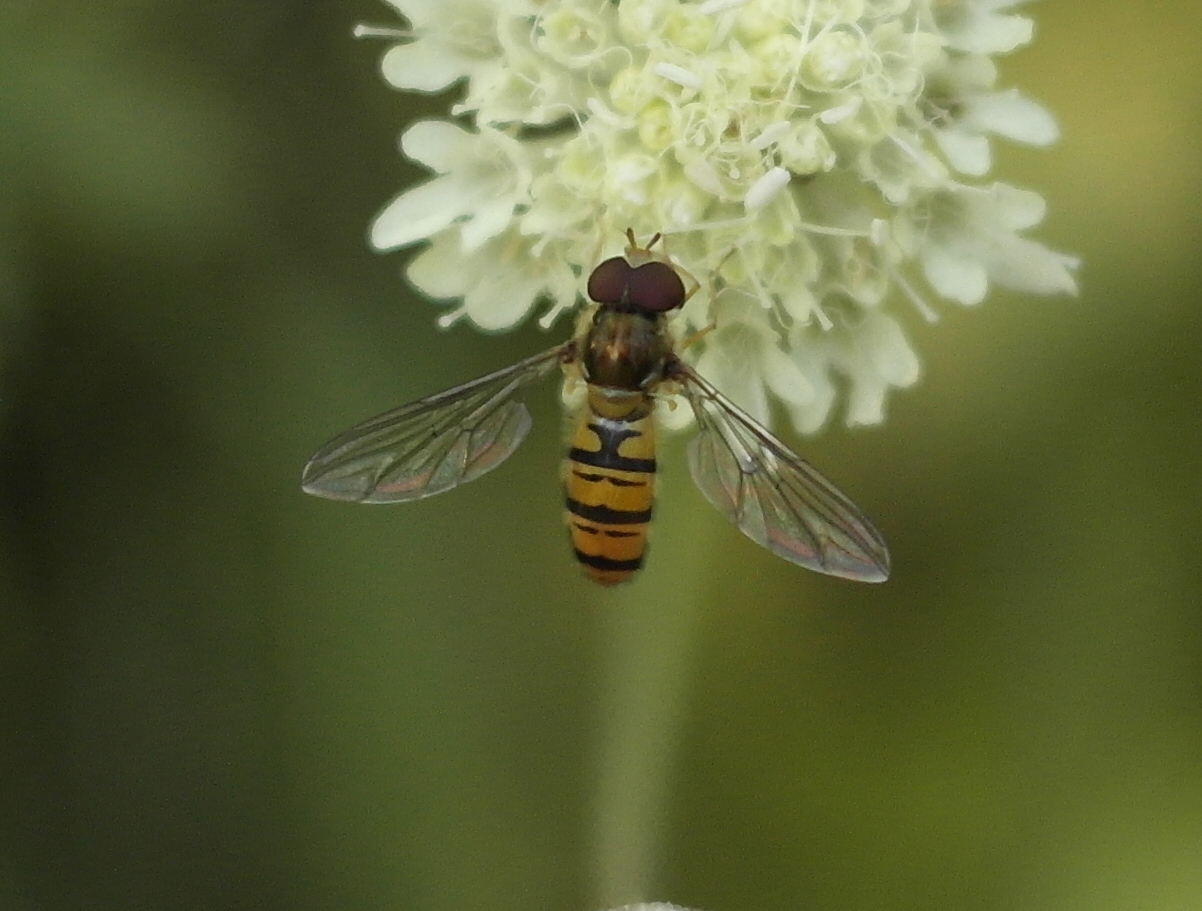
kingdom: Animalia
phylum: Arthropoda
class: Insecta
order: Diptera
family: Syrphidae
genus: Episyrphus
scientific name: Episyrphus balteatus
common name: Marmalade hoverfly
